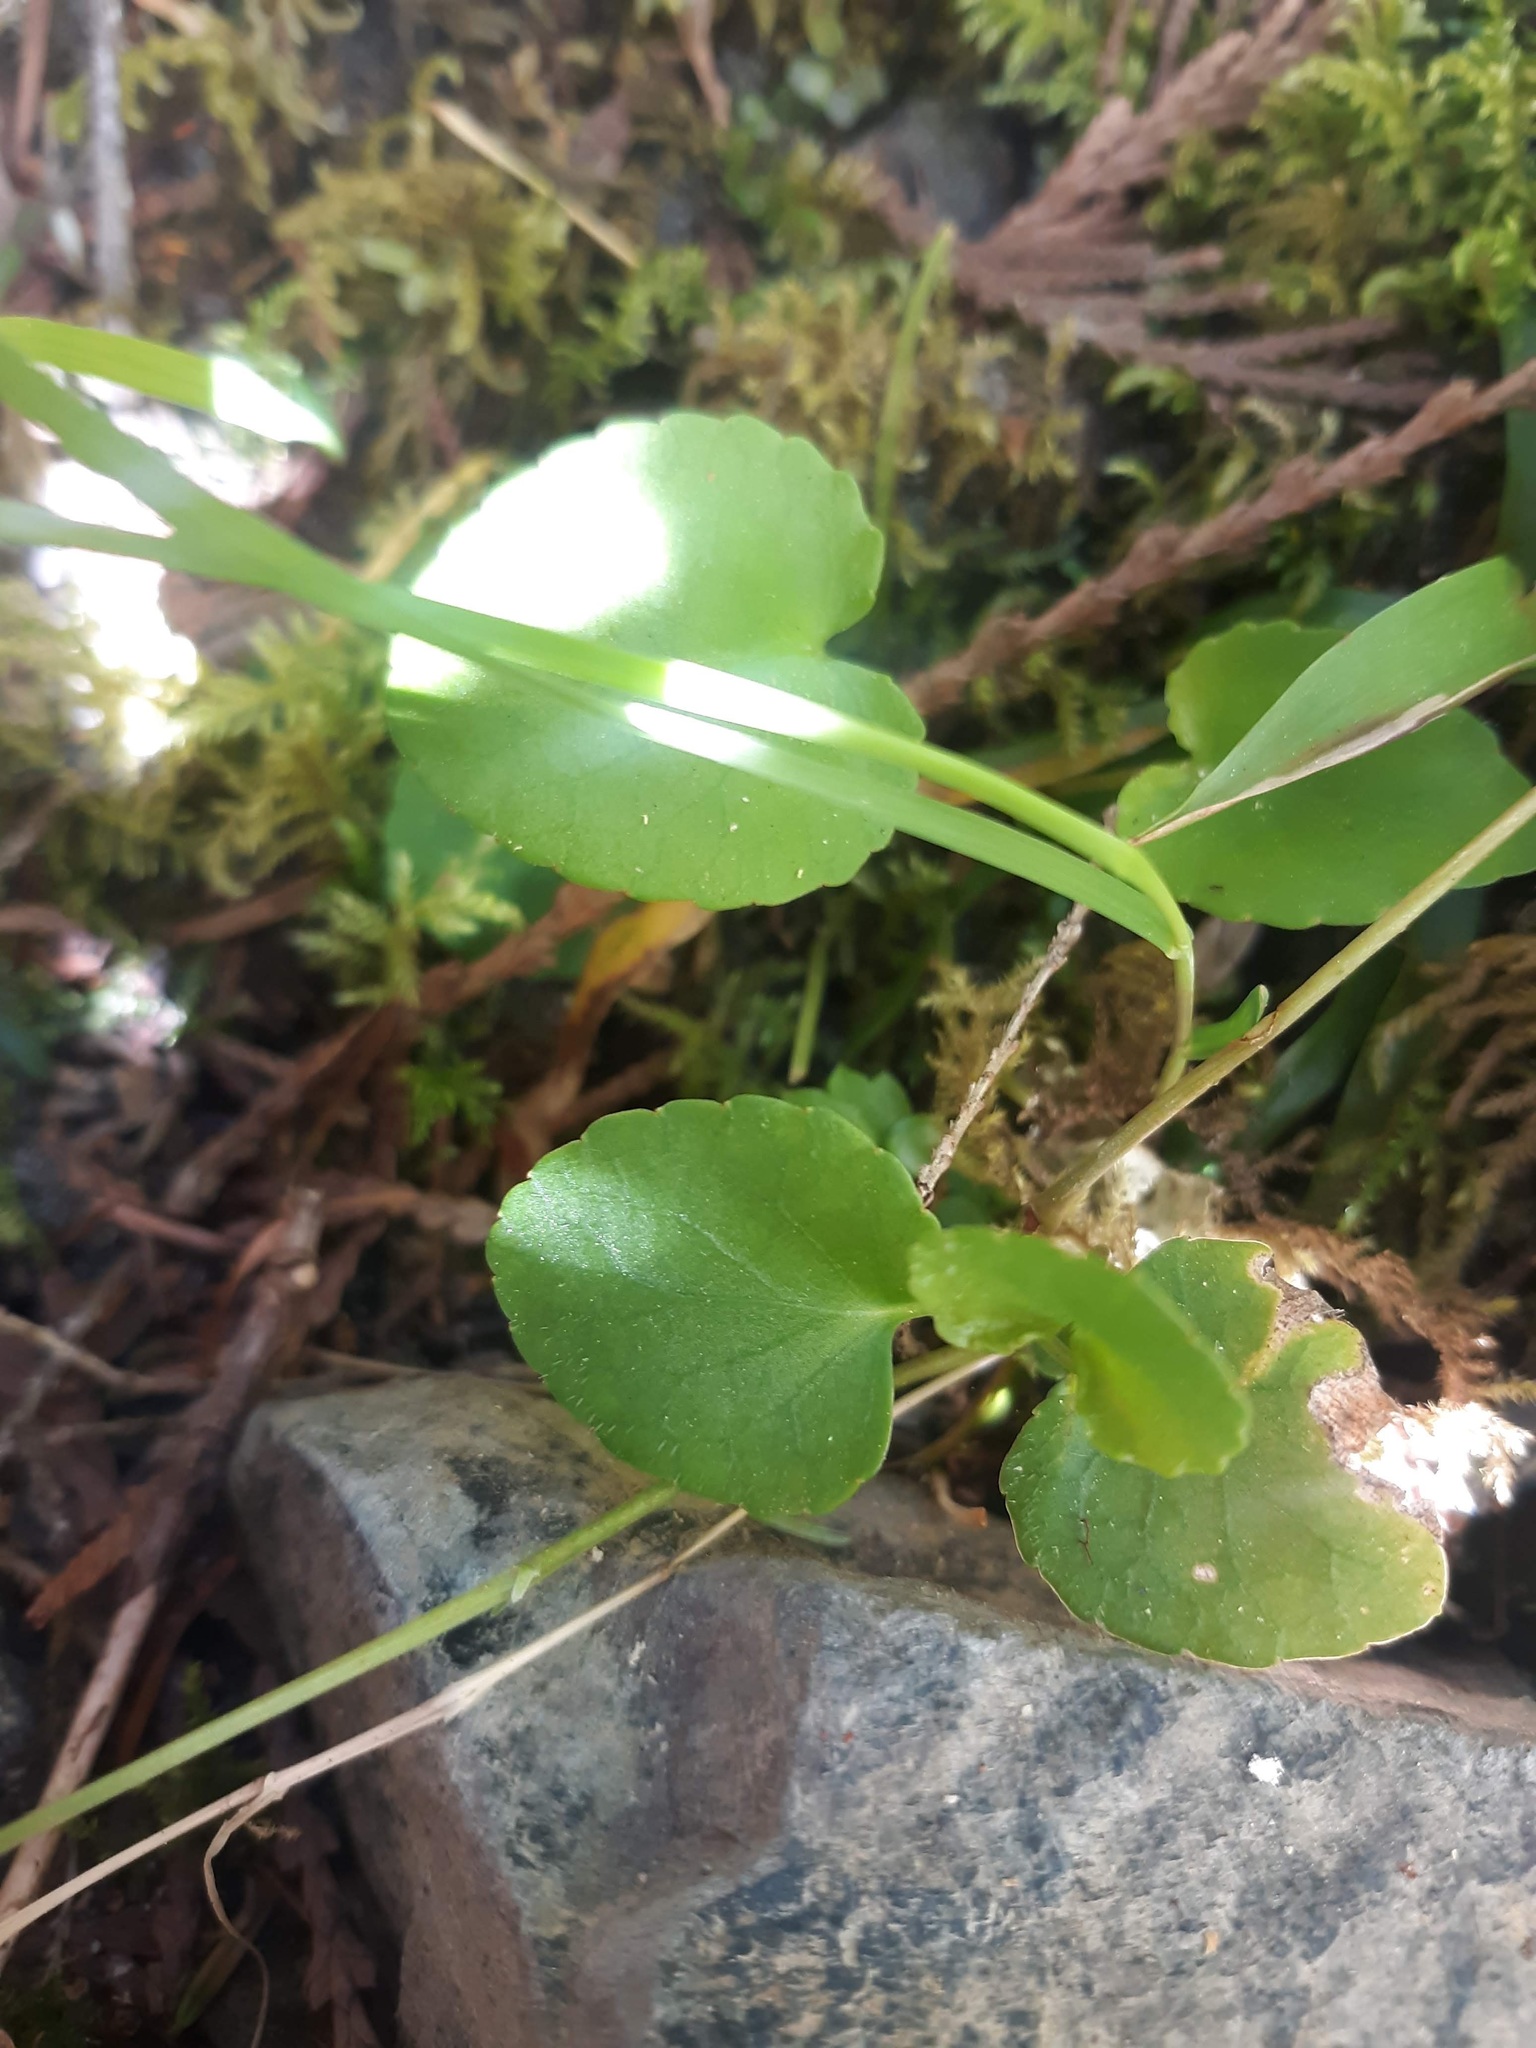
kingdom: Plantae
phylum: Tracheophyta
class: Magnoliopsida
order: Malpighiales
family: Violaceae
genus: Viola
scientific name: Viola sempervirens
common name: Evergreen violet
